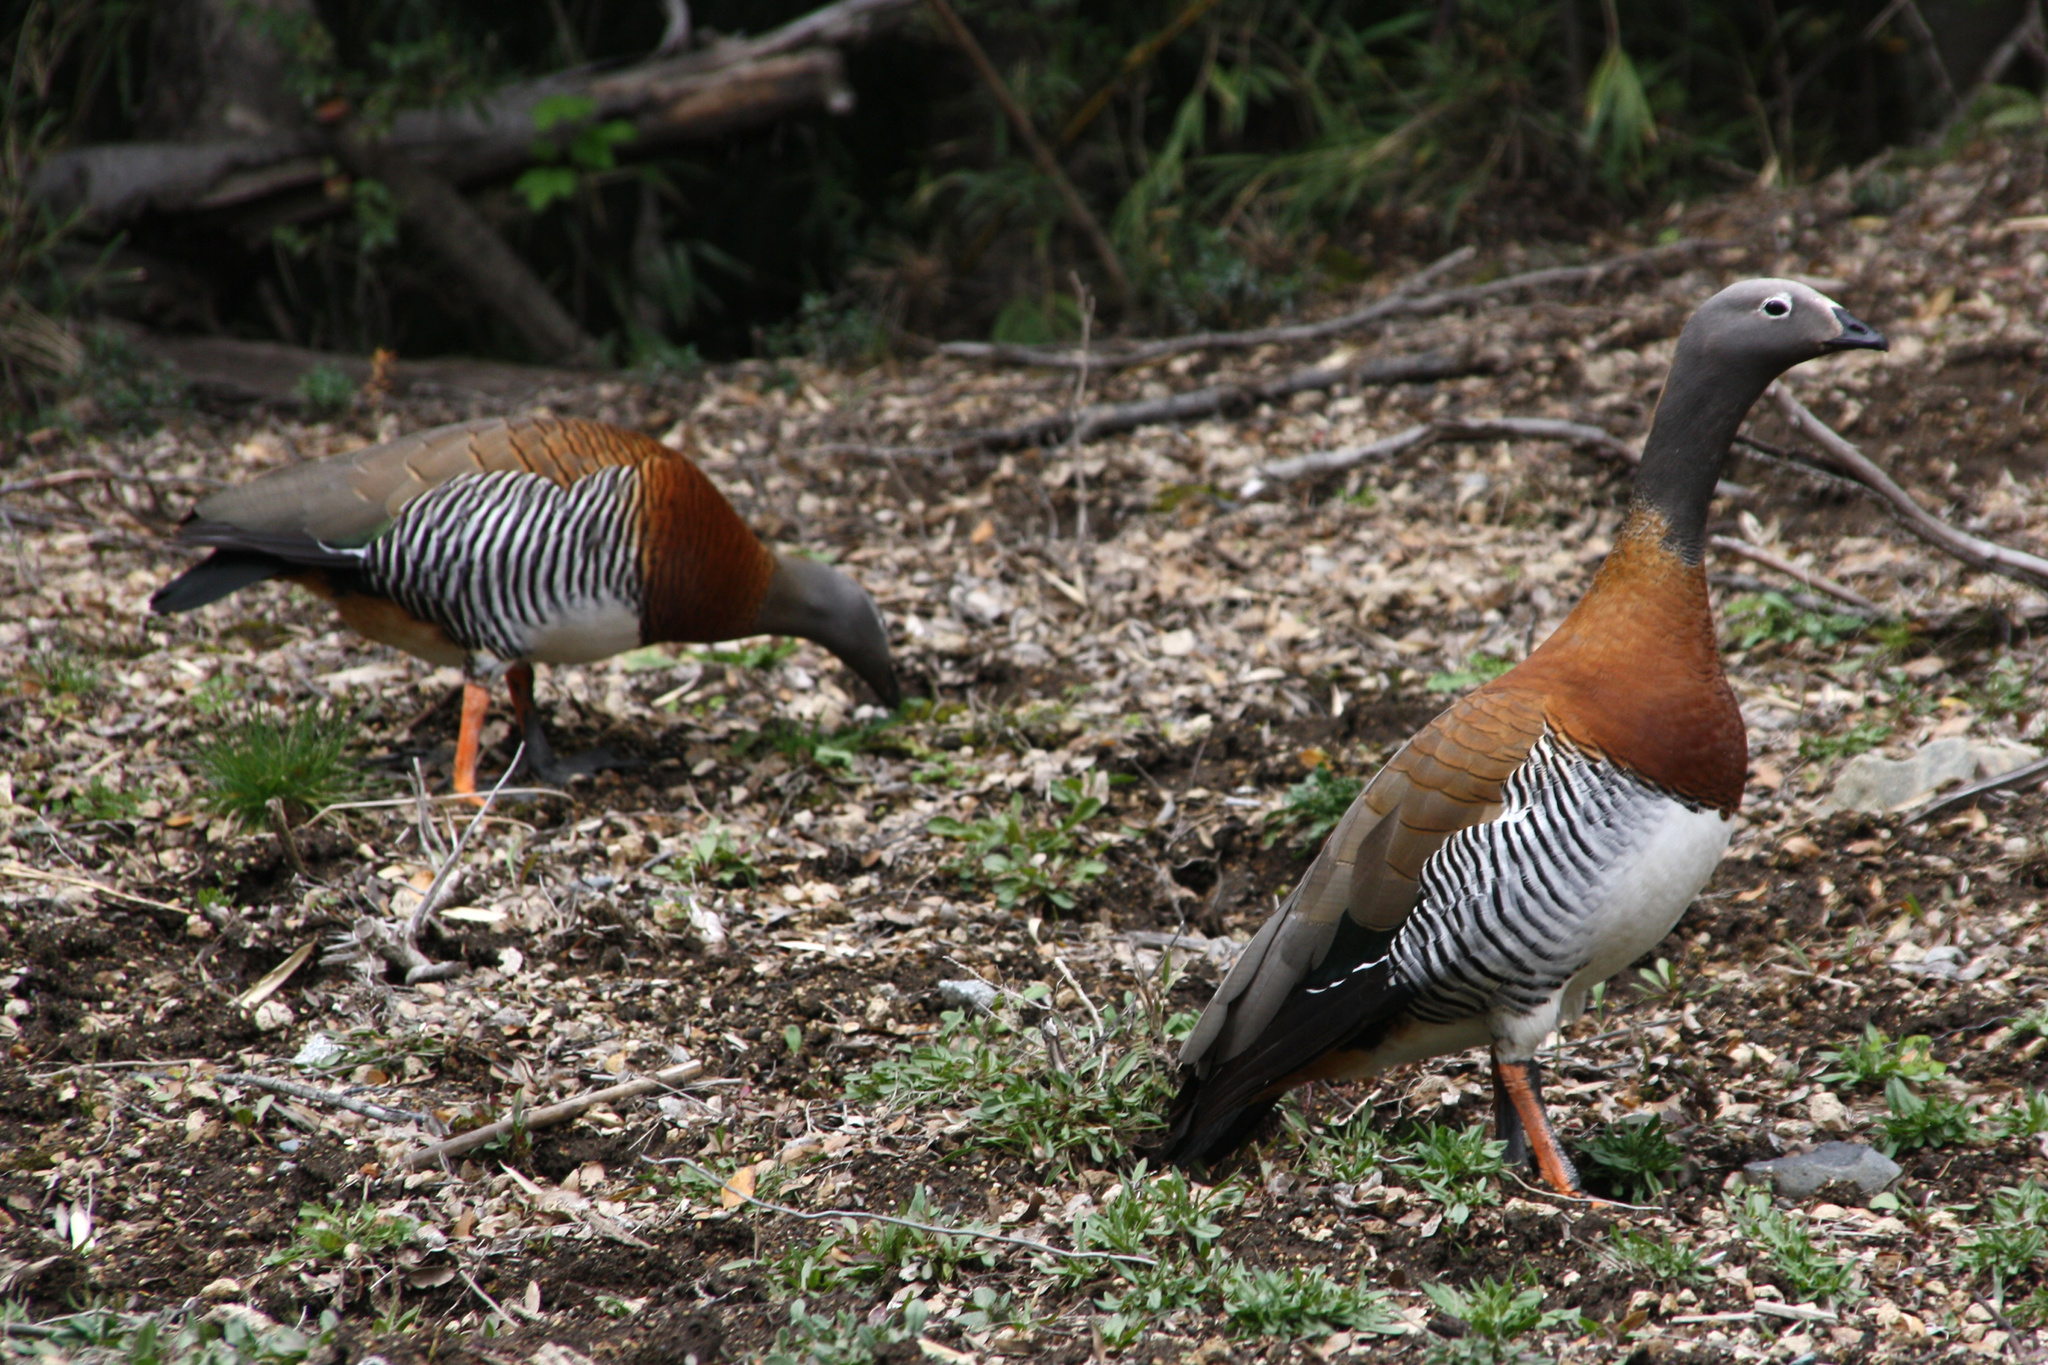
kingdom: Animalia
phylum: Chordata
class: Aves
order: Anseriformes
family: Anatidae
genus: Chloephaga
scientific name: Chloephaga poliocephala
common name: Ashy-headed goose
